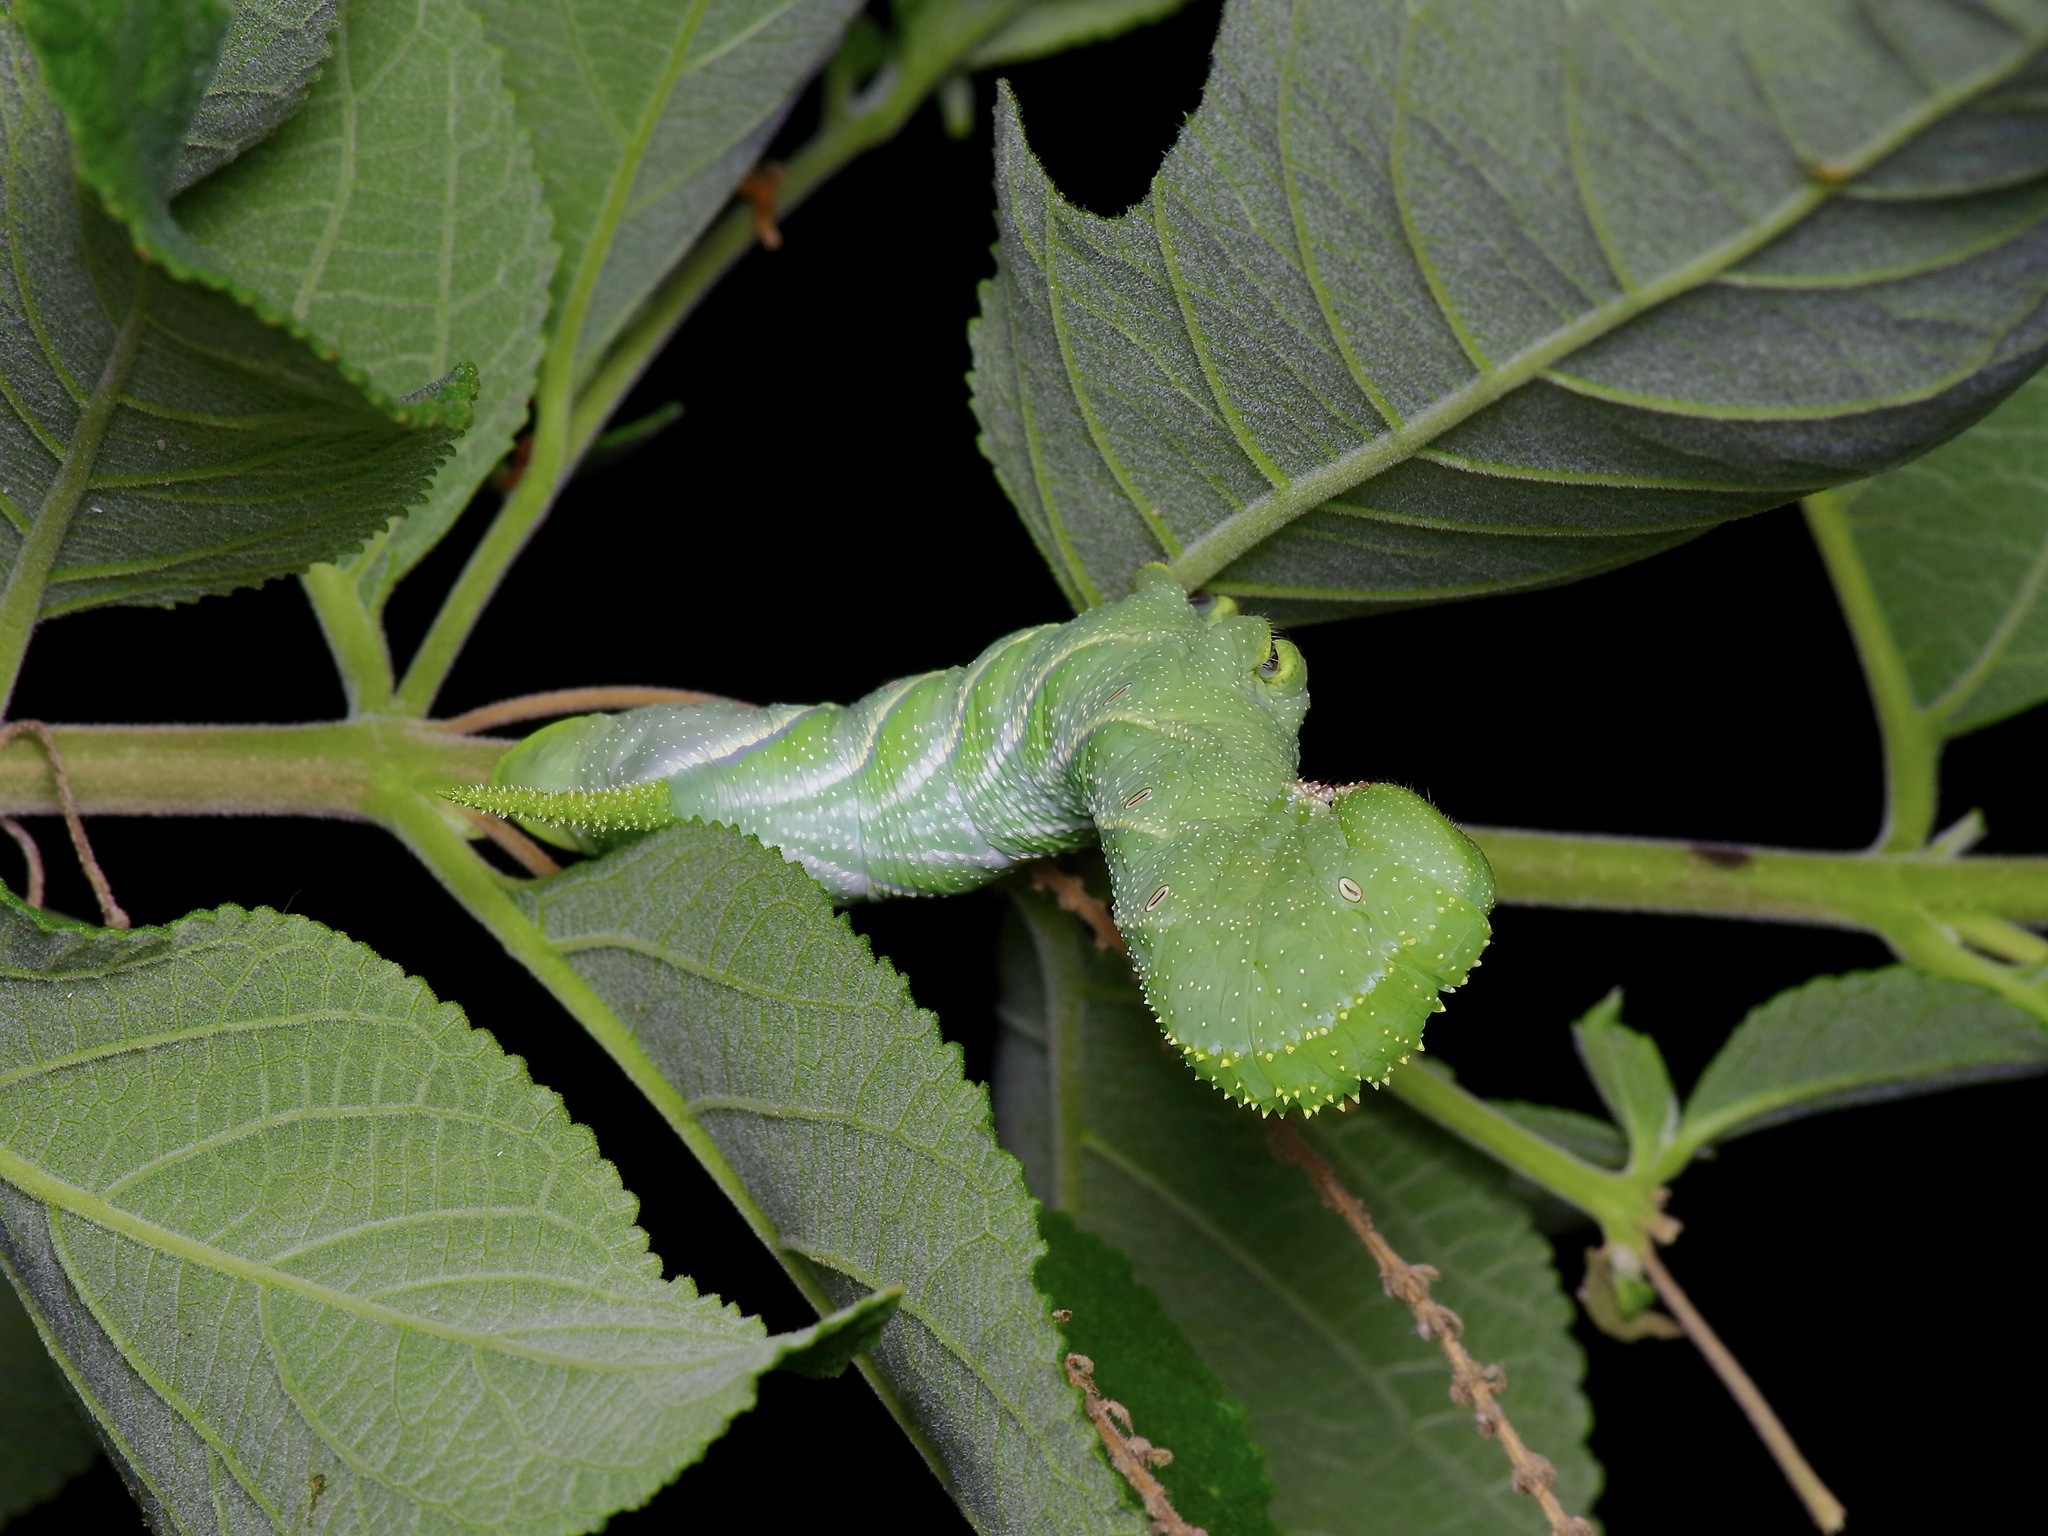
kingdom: Animalia
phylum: Arthropoda
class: Insecta
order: Lepidoptera
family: Sphingidae
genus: Manduca
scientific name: Manduca rustica
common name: Rustic sphinx
